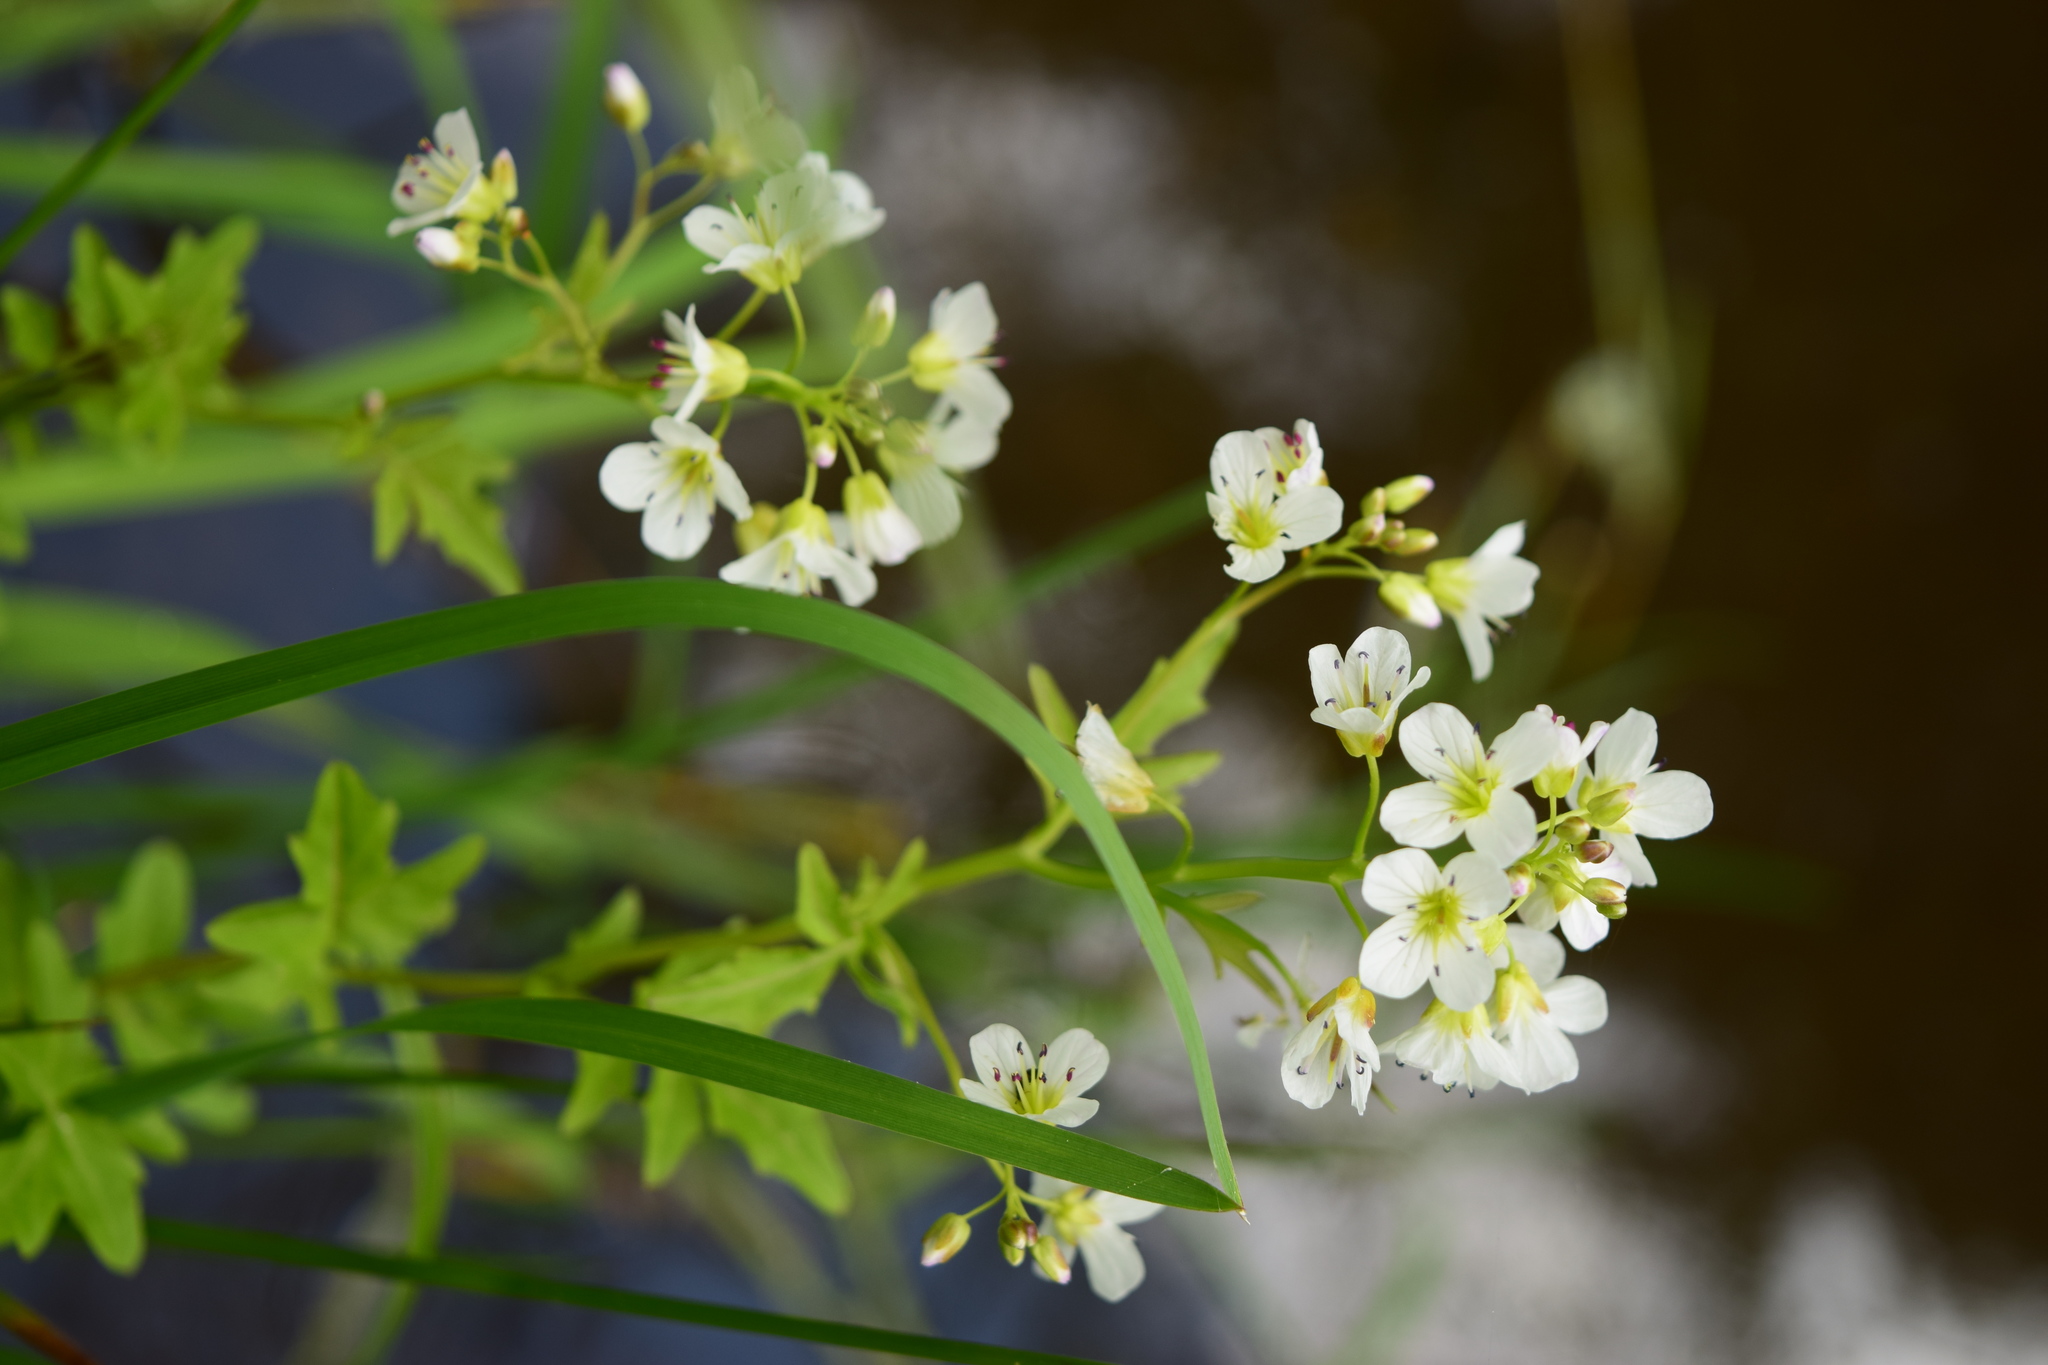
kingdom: Plantae
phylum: Tracheophyta
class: Magnoliopsida
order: Brassicales
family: Brassicaceae
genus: Cardamine
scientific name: Cardamine amara
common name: Large bitter-cress
